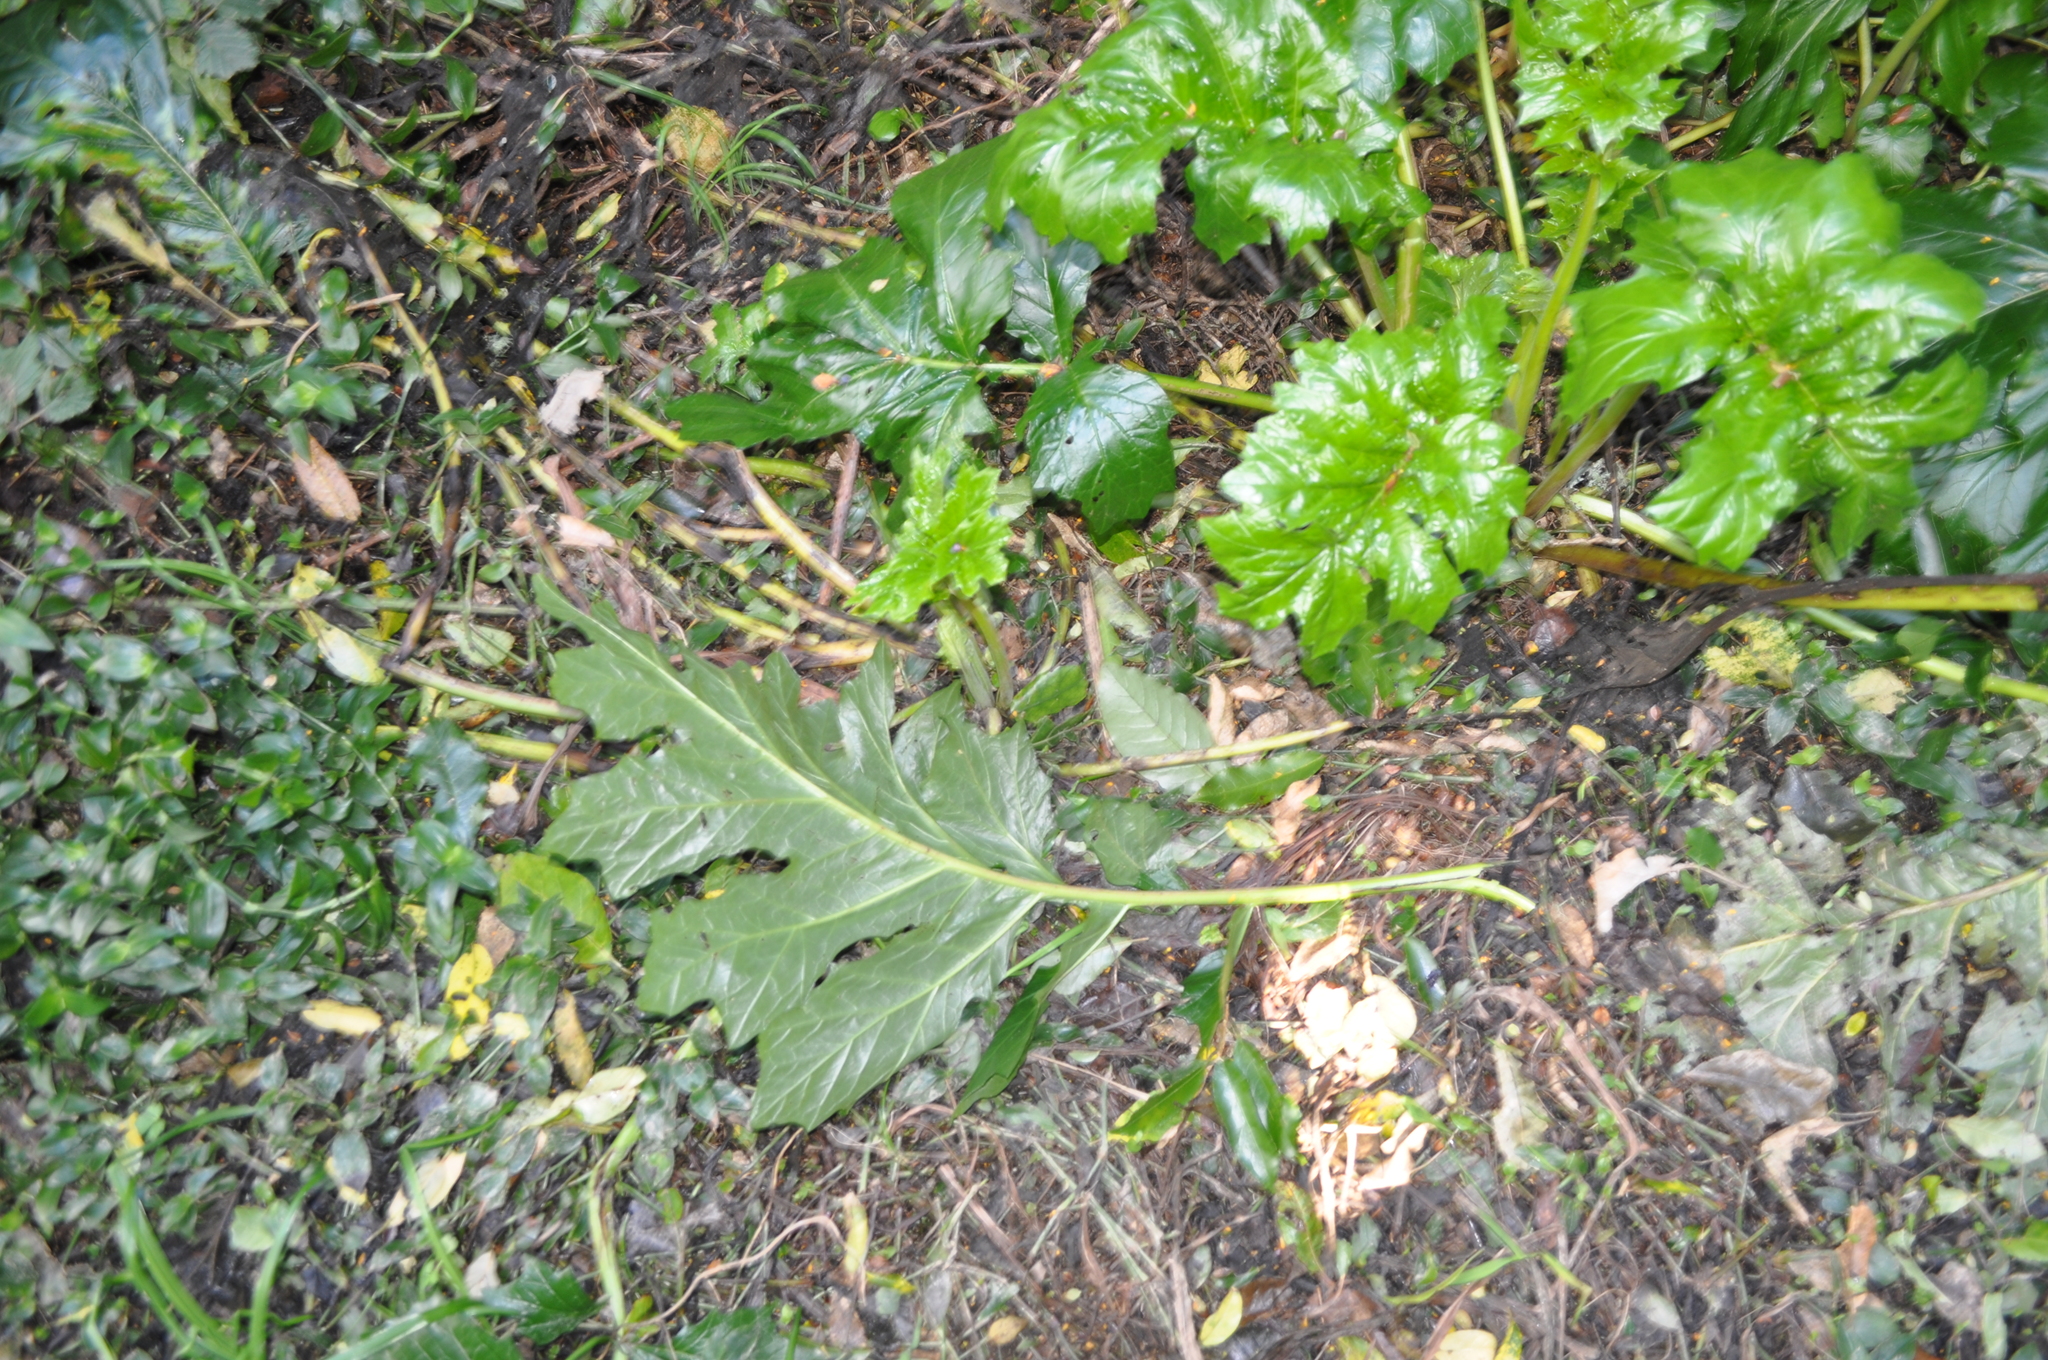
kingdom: Plantae
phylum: Tracheophyta
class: Magnoliopsida
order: Lamiales
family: Acanthaceae
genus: Acanthus
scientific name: Acanthus mollis
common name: Bear's-breech
